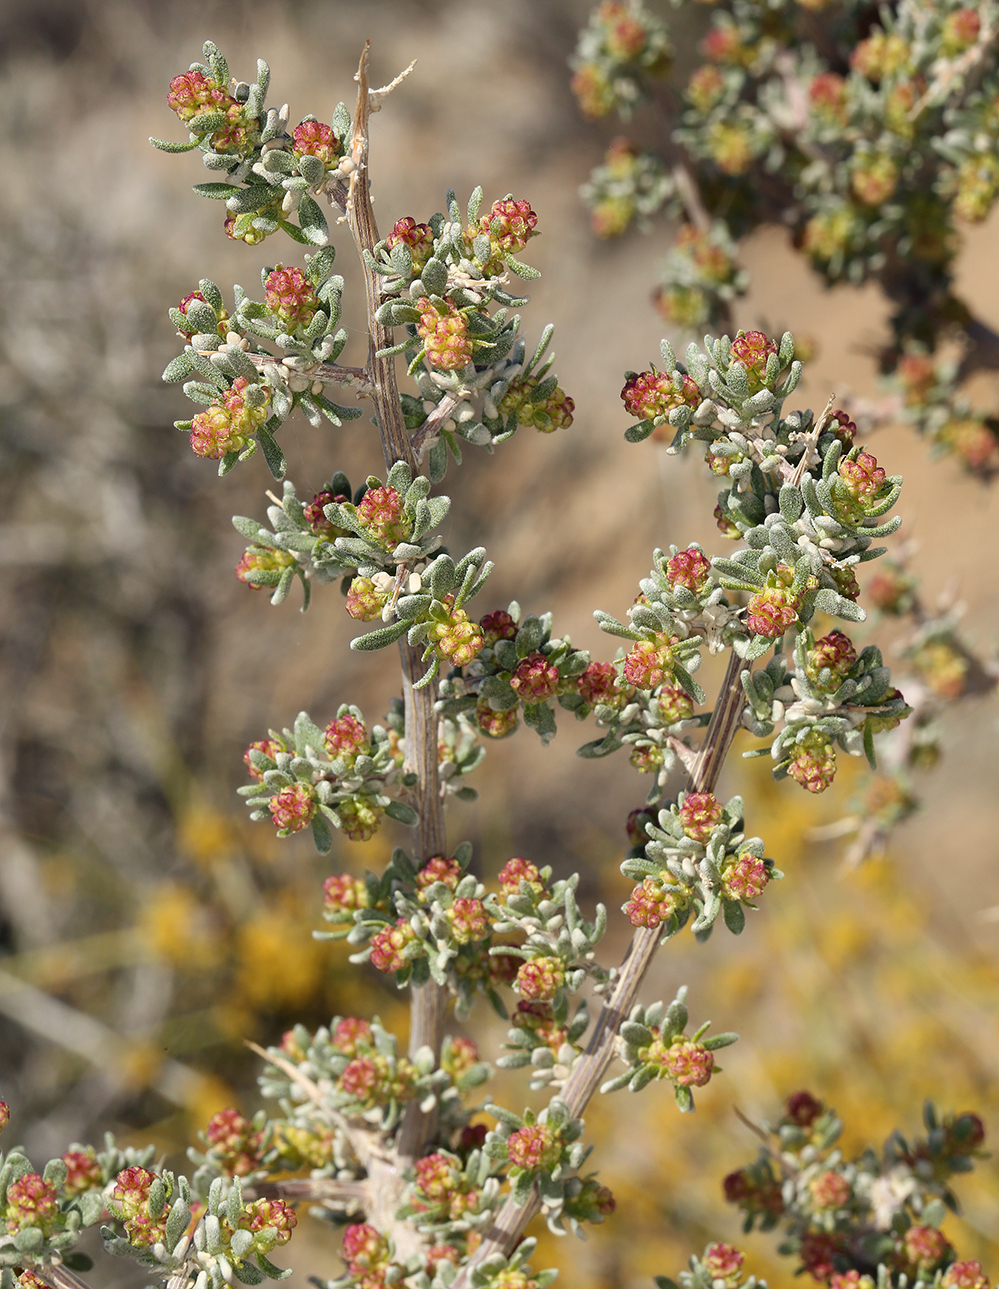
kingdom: Plantae
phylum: Tracheophyta
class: Magnoliopsida
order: Caryophyllales
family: Amaranthaceae
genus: Grayia
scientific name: Grayia spinosa
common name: Spiny hopsage
